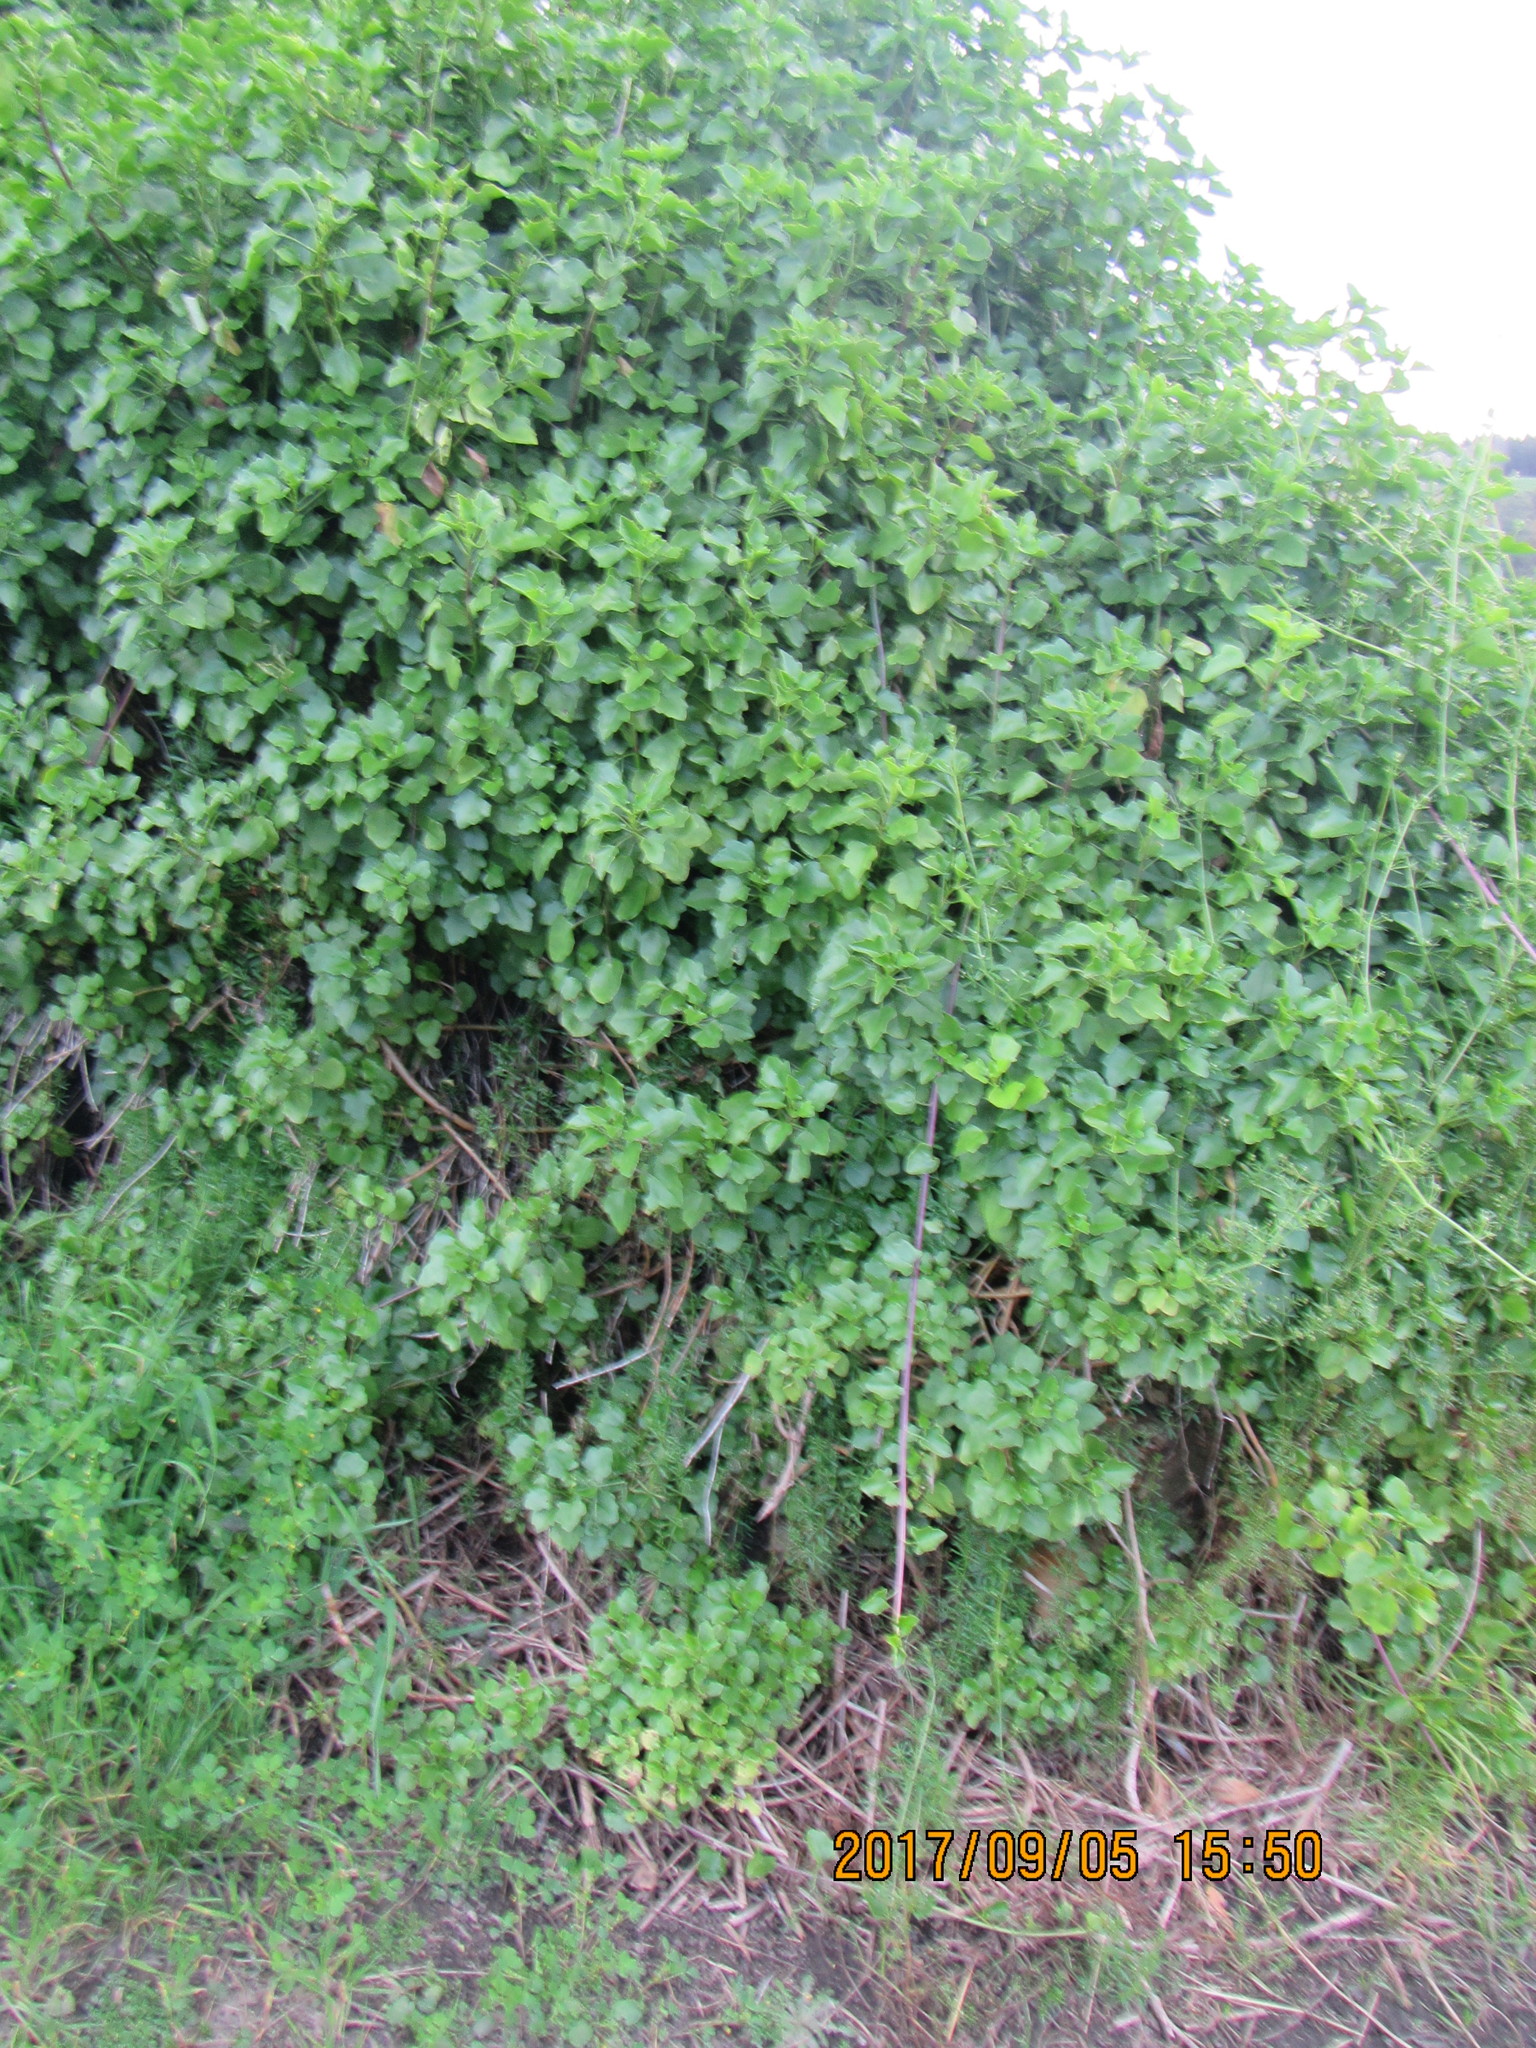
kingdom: Plantae
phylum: Tracheophyta
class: Magnoliopsida
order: Asterales
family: Asteraceae
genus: Senecio
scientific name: Senecio angulatus
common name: Climbing groundsel
